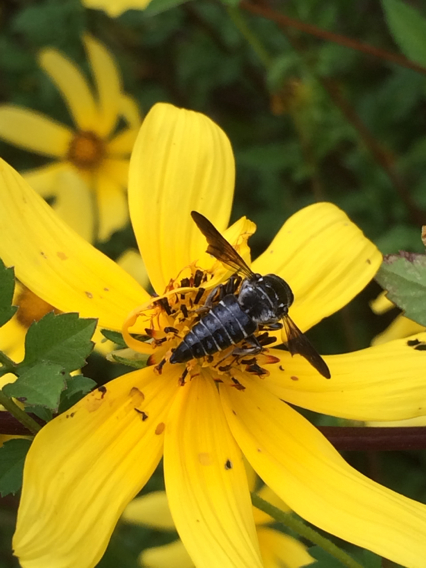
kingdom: Animalia
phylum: Arthropoda
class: Insecta
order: Hymenoptera
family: Megachilidae
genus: Coelioxys
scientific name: Coelioxys dolichos
